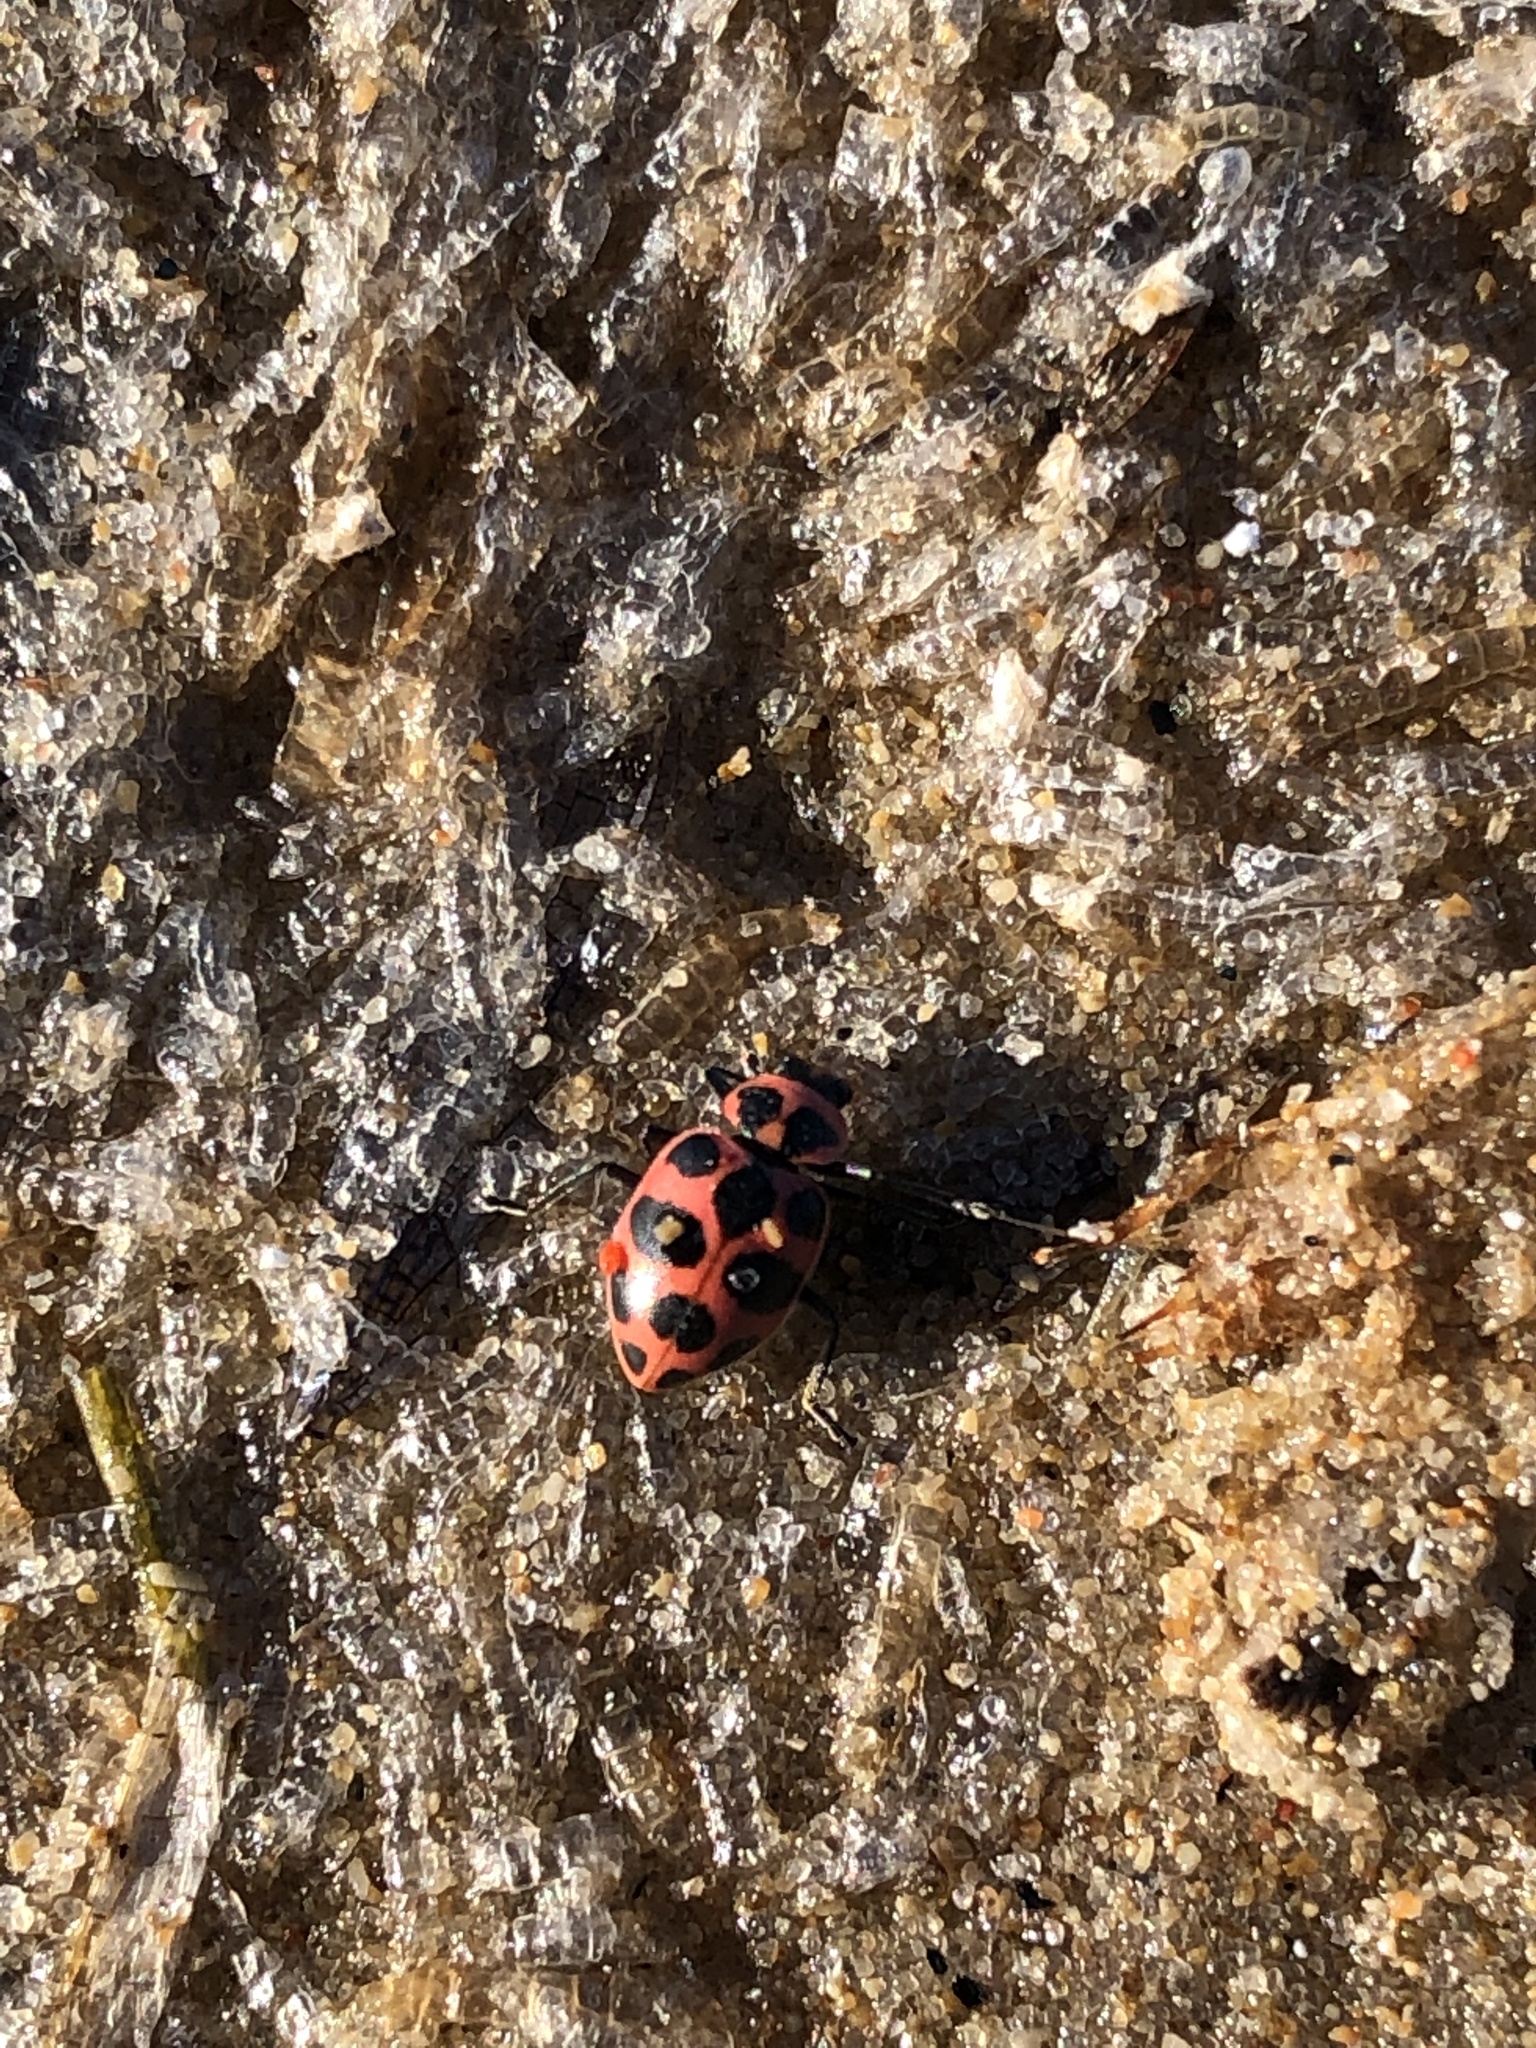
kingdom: Animalia
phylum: Arthropoda
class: Insecta
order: Coleoptera
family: Coccinellidae
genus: Coleomegilla
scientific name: Coleomegilla maculata
